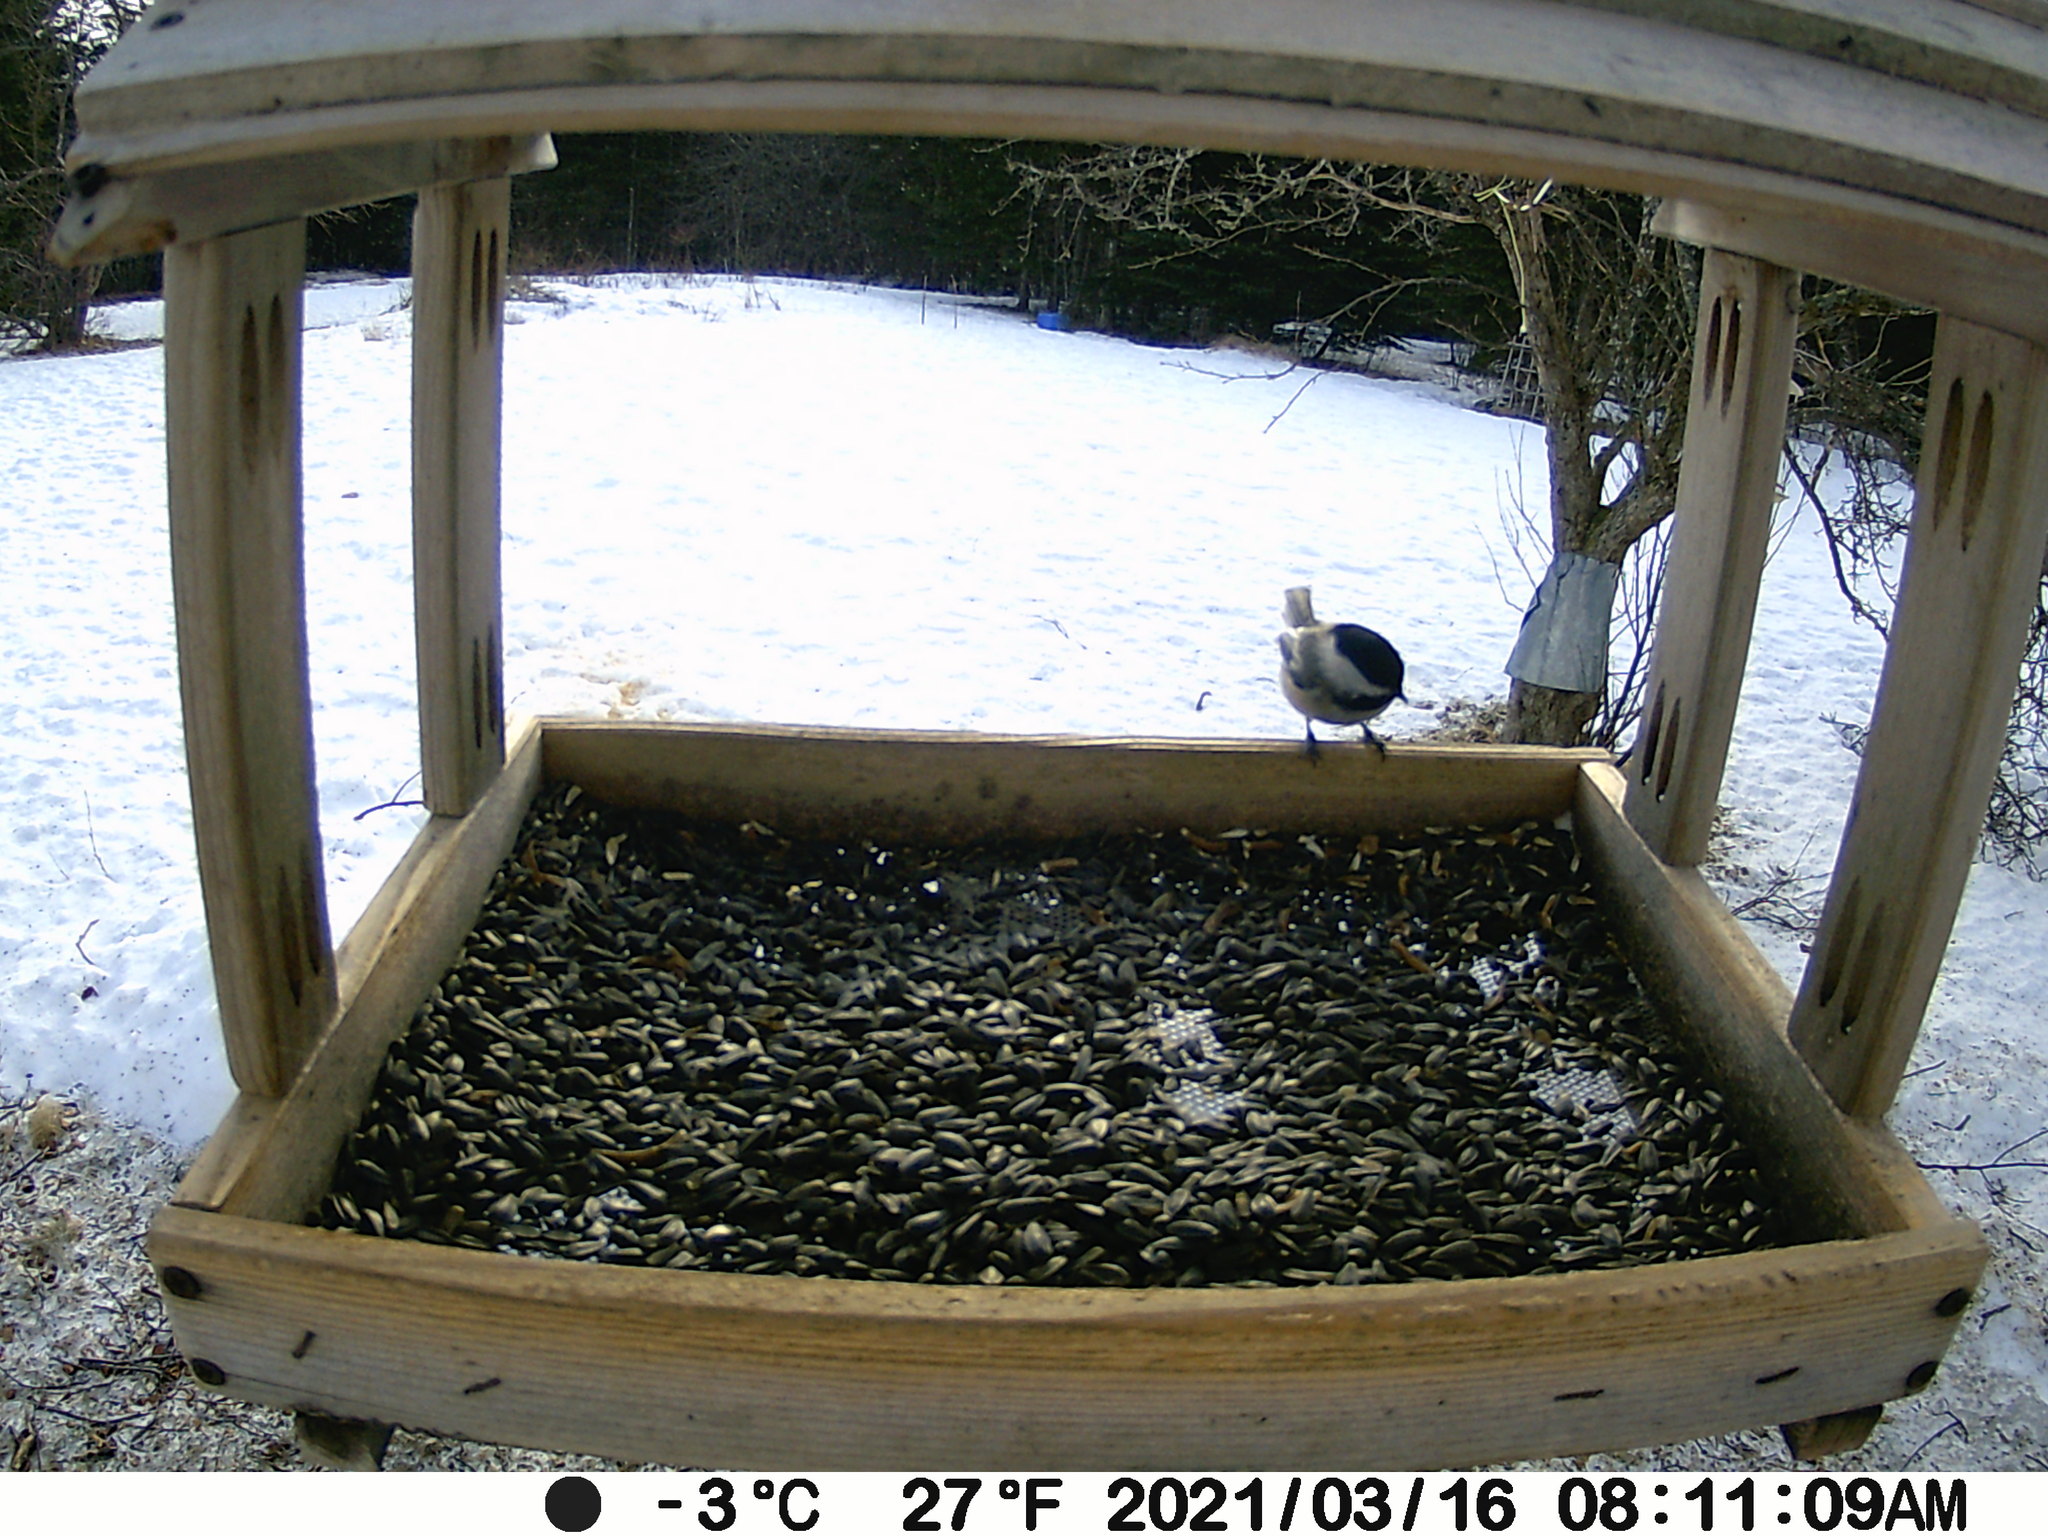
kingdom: Animalia
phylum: Chordata
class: Aves
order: Passeriformes
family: Paridae
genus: Poecile
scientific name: Poecile atricapillus
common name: Black-capped chickadee
